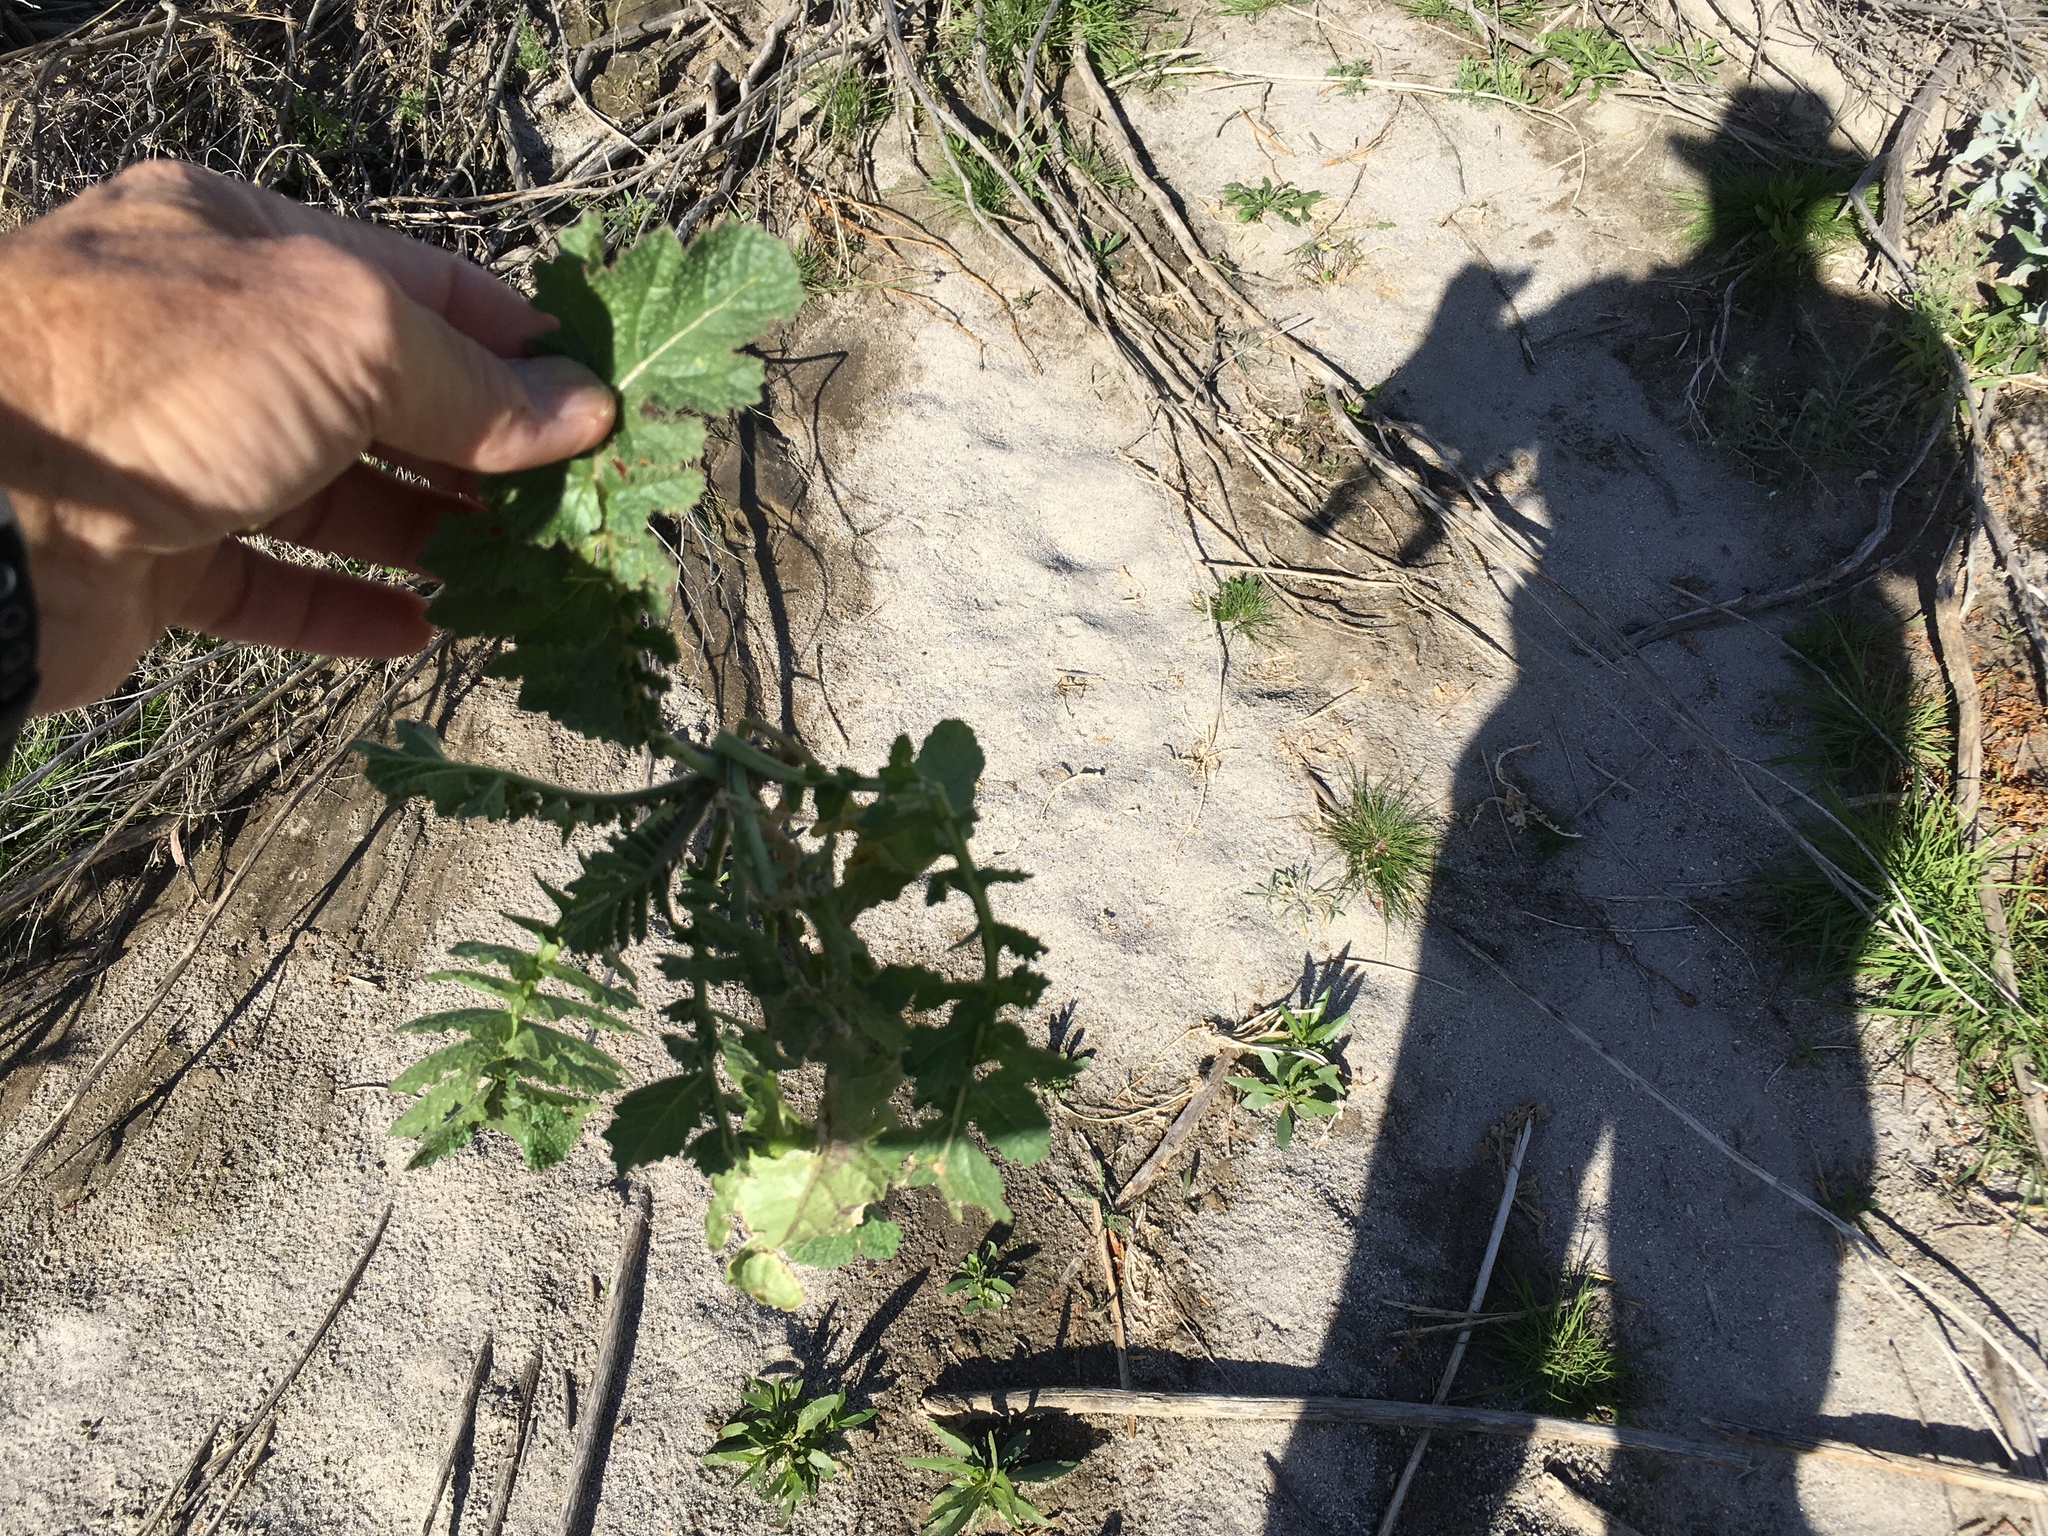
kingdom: Plantae
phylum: Tracheophyta
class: Magnoliopsida
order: Brassicales
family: Brassicaceae
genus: Brassica
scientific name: Brassica tournefortii
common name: Pale cabbage
